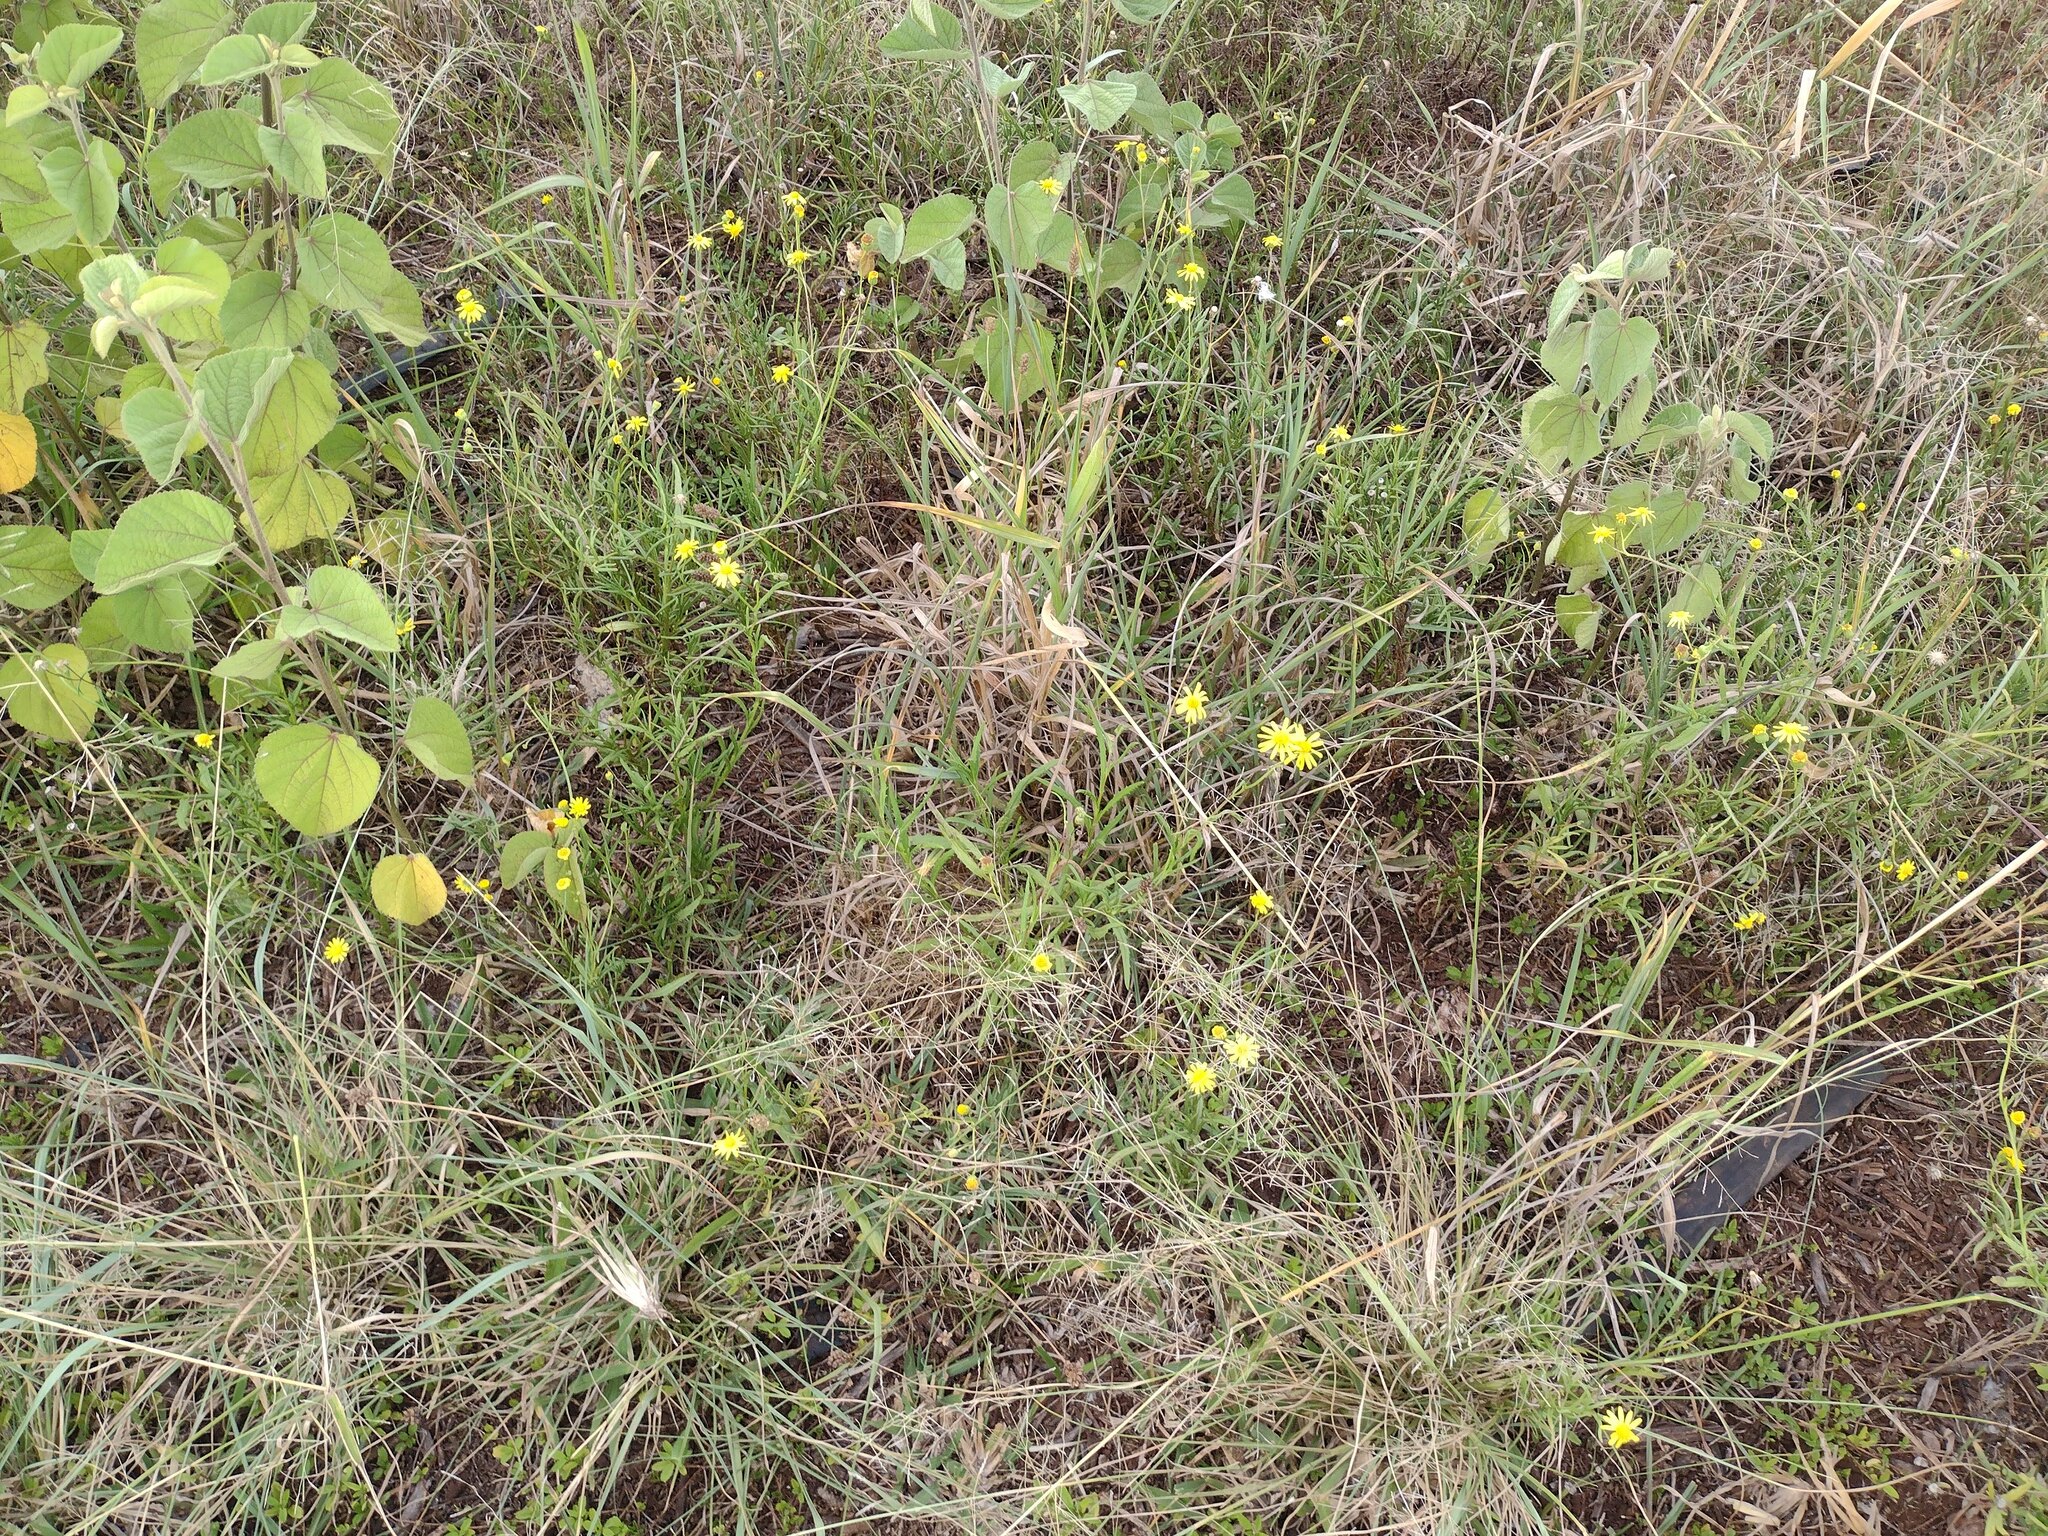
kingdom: Plantae
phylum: Tracheophyta
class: Magnoliopsida
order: Asterales
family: Asteraceae
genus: Senecio
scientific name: Senecio madagascariensis
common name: Madagascar ragwort
